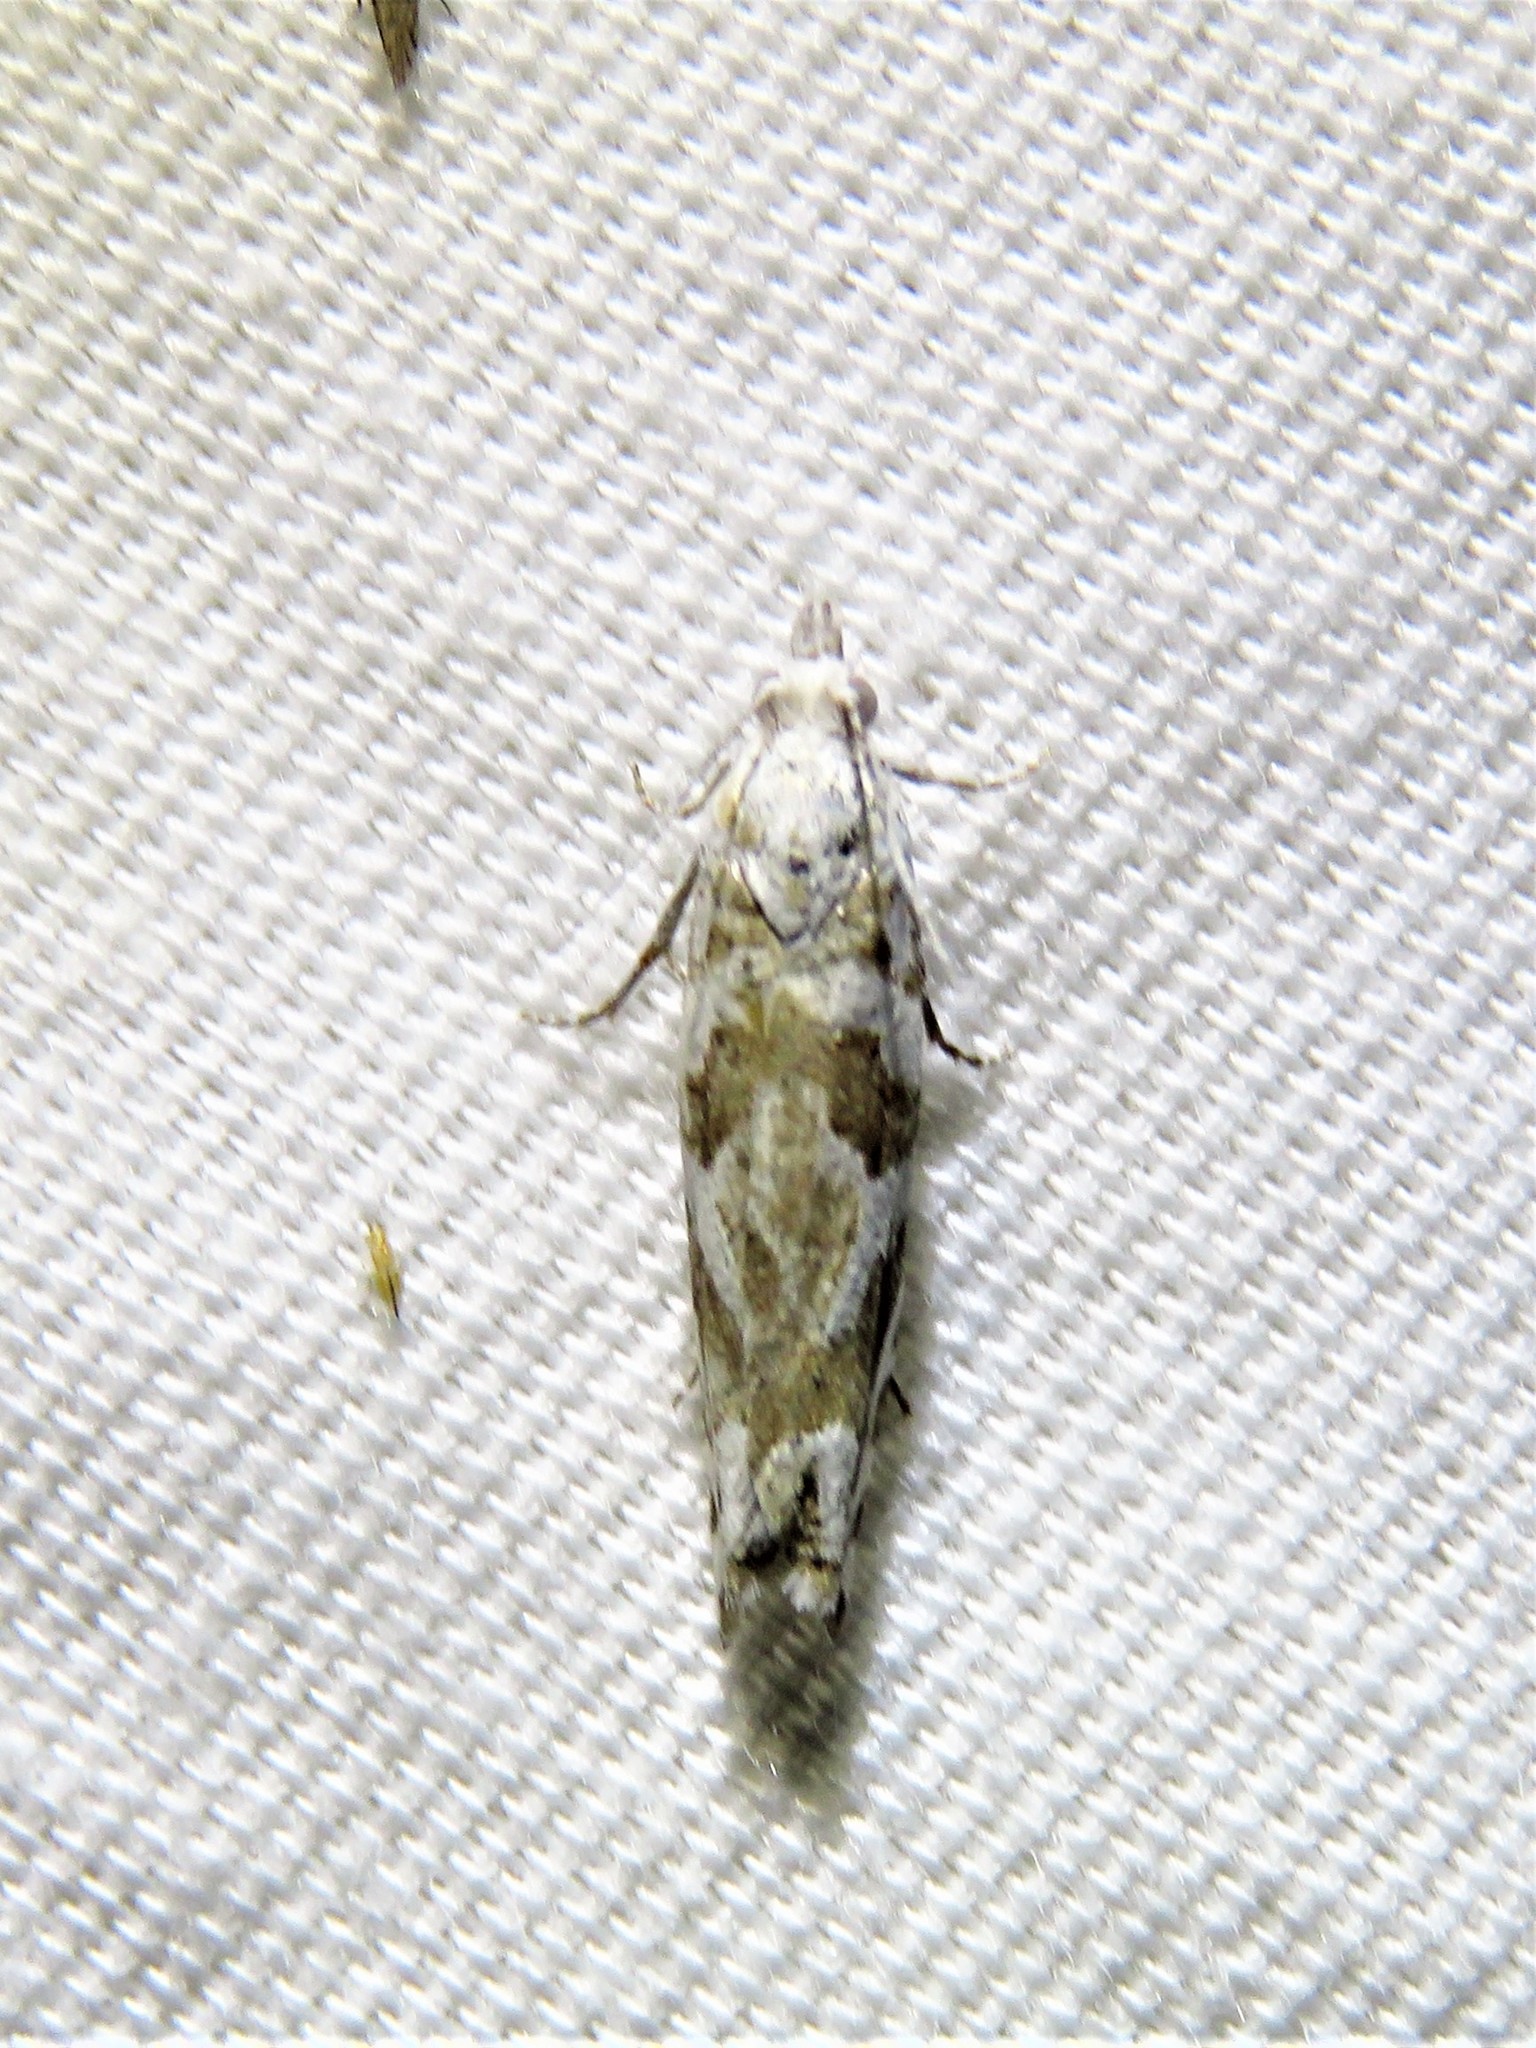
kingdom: Animalia
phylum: Arthropoda
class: Insecta
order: Lepidoptera
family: Tortricidae
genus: Eucosma
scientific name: Eucosma mayelisana
